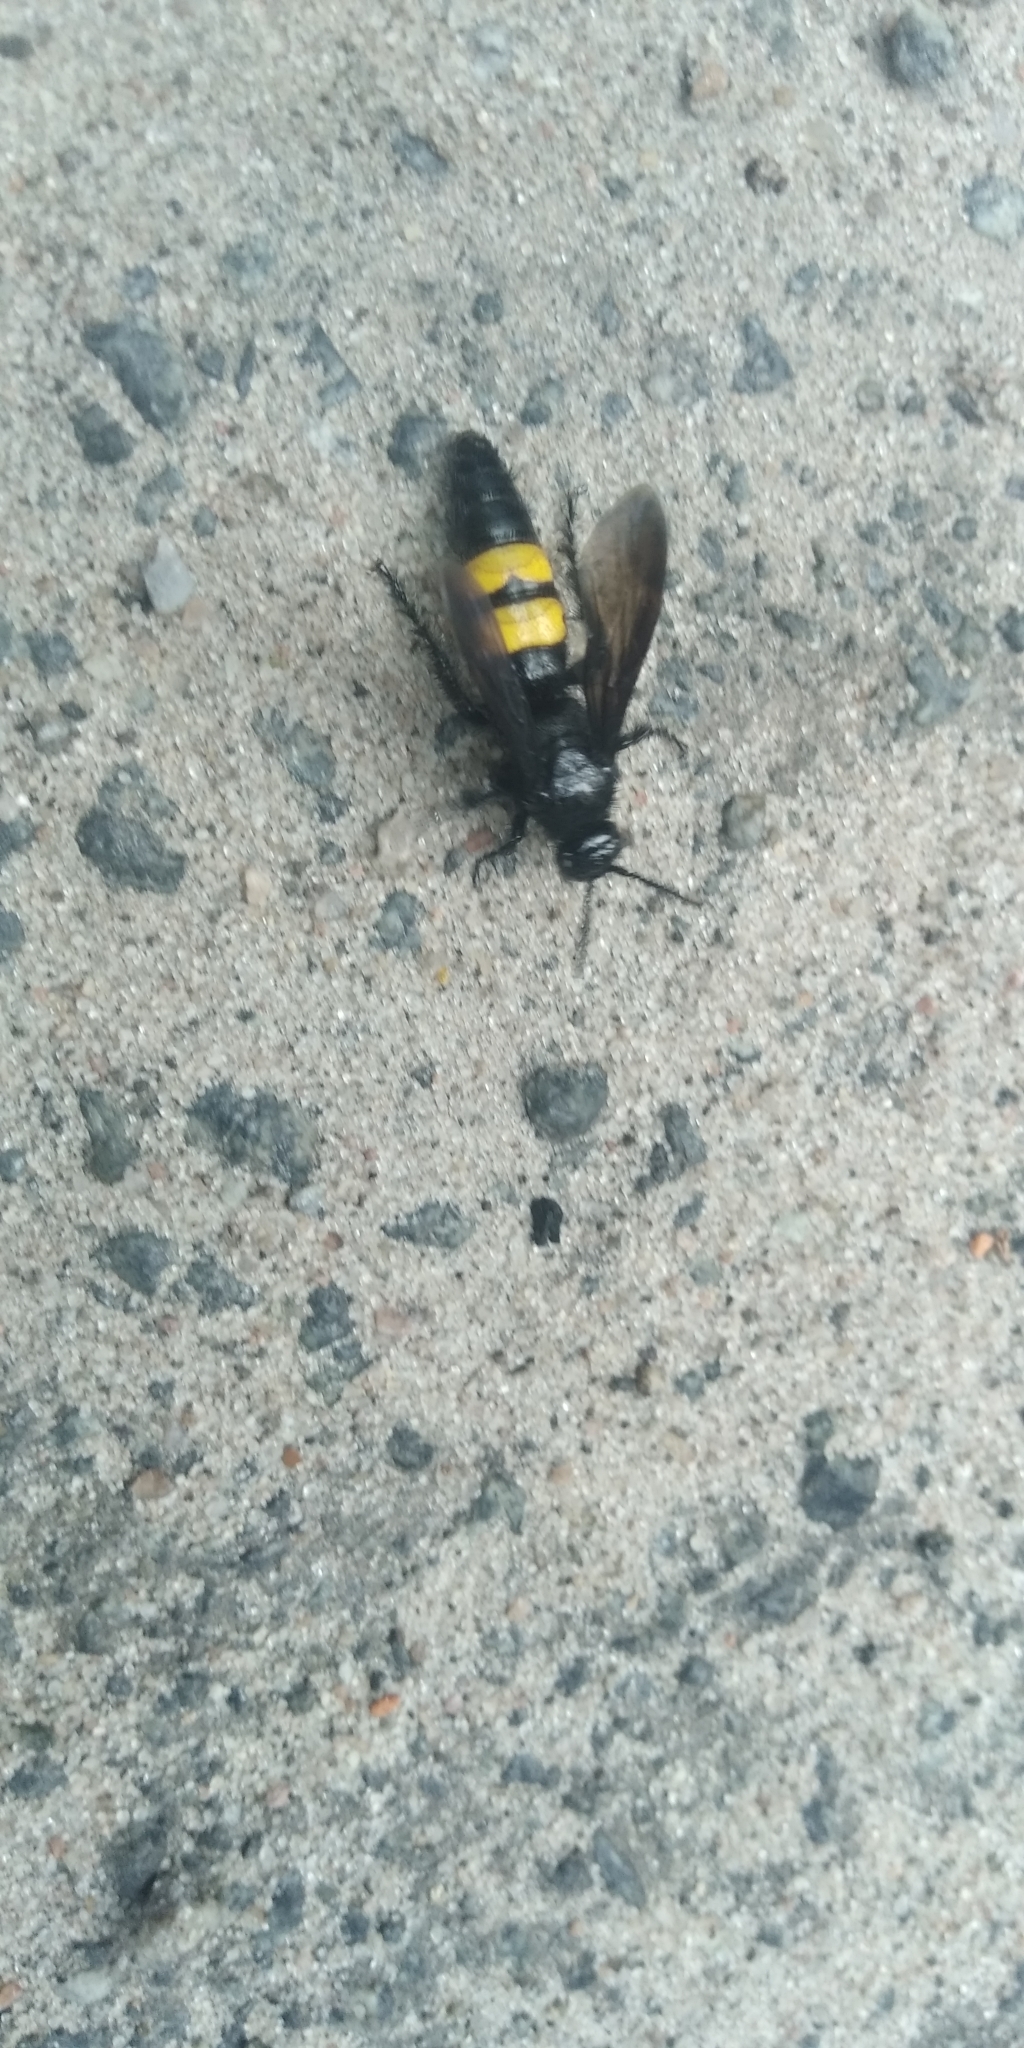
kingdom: Animalia
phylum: Arthropoda
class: Insecta
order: Hymenoptera
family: Scoliidae
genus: Scolia
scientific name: Scolia hirta
